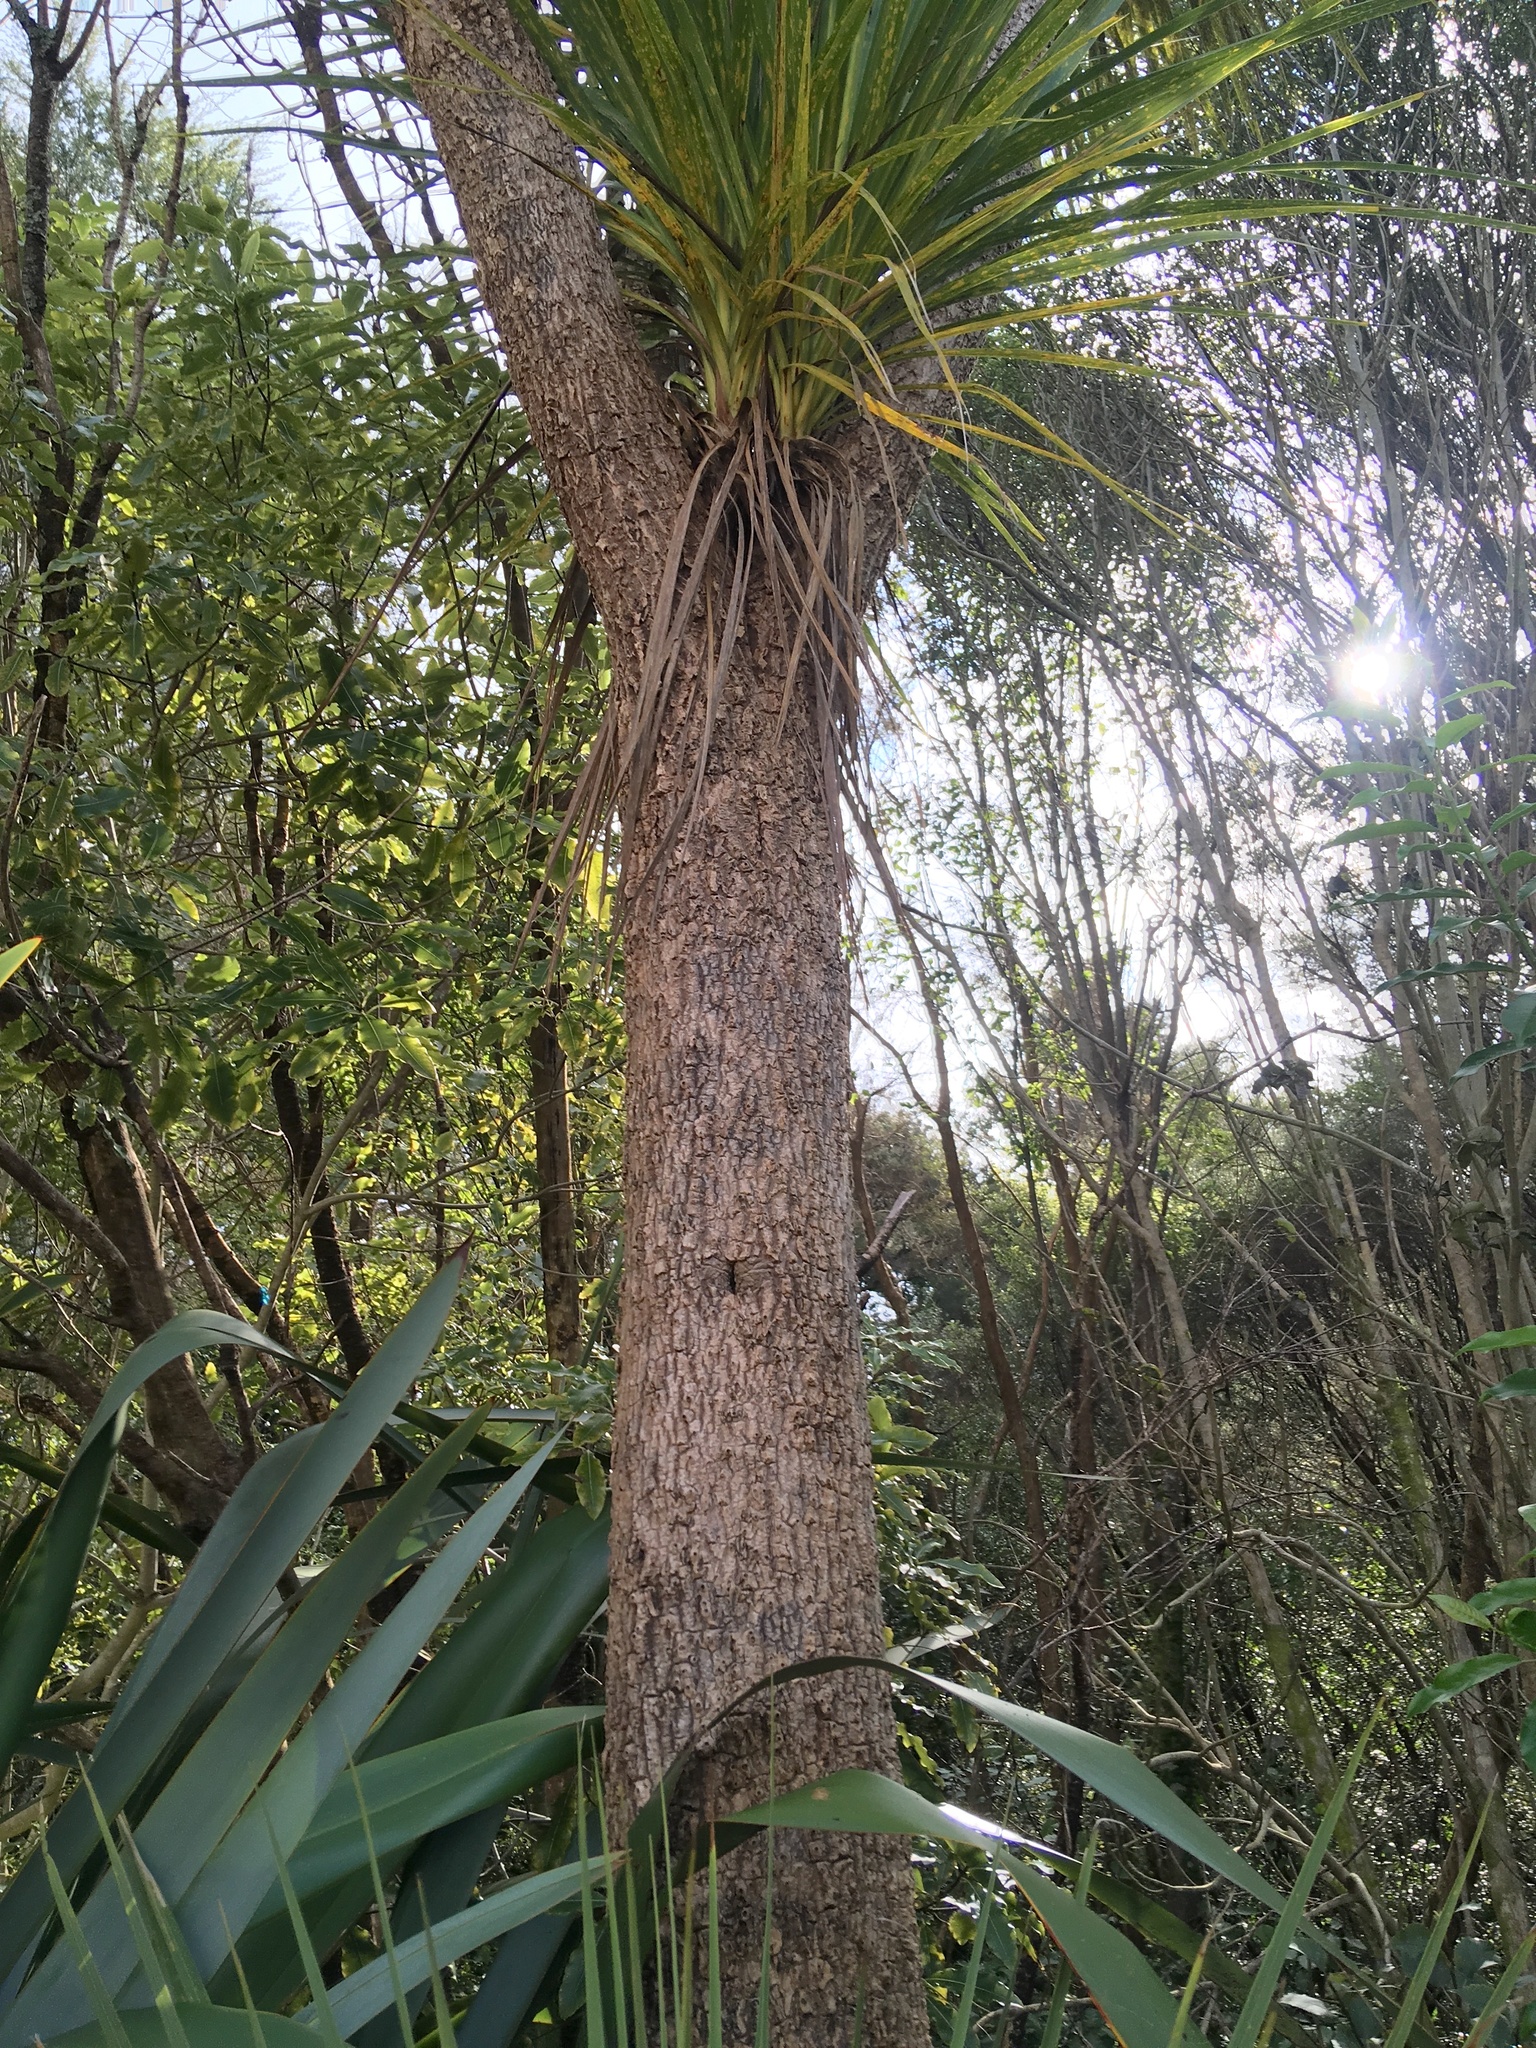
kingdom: Plantae
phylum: Tracheophyta
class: Liliopsida
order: Asparagales
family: Asparagaceae
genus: Cordyline
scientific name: Cordyline australis
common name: Cabbage-palm
